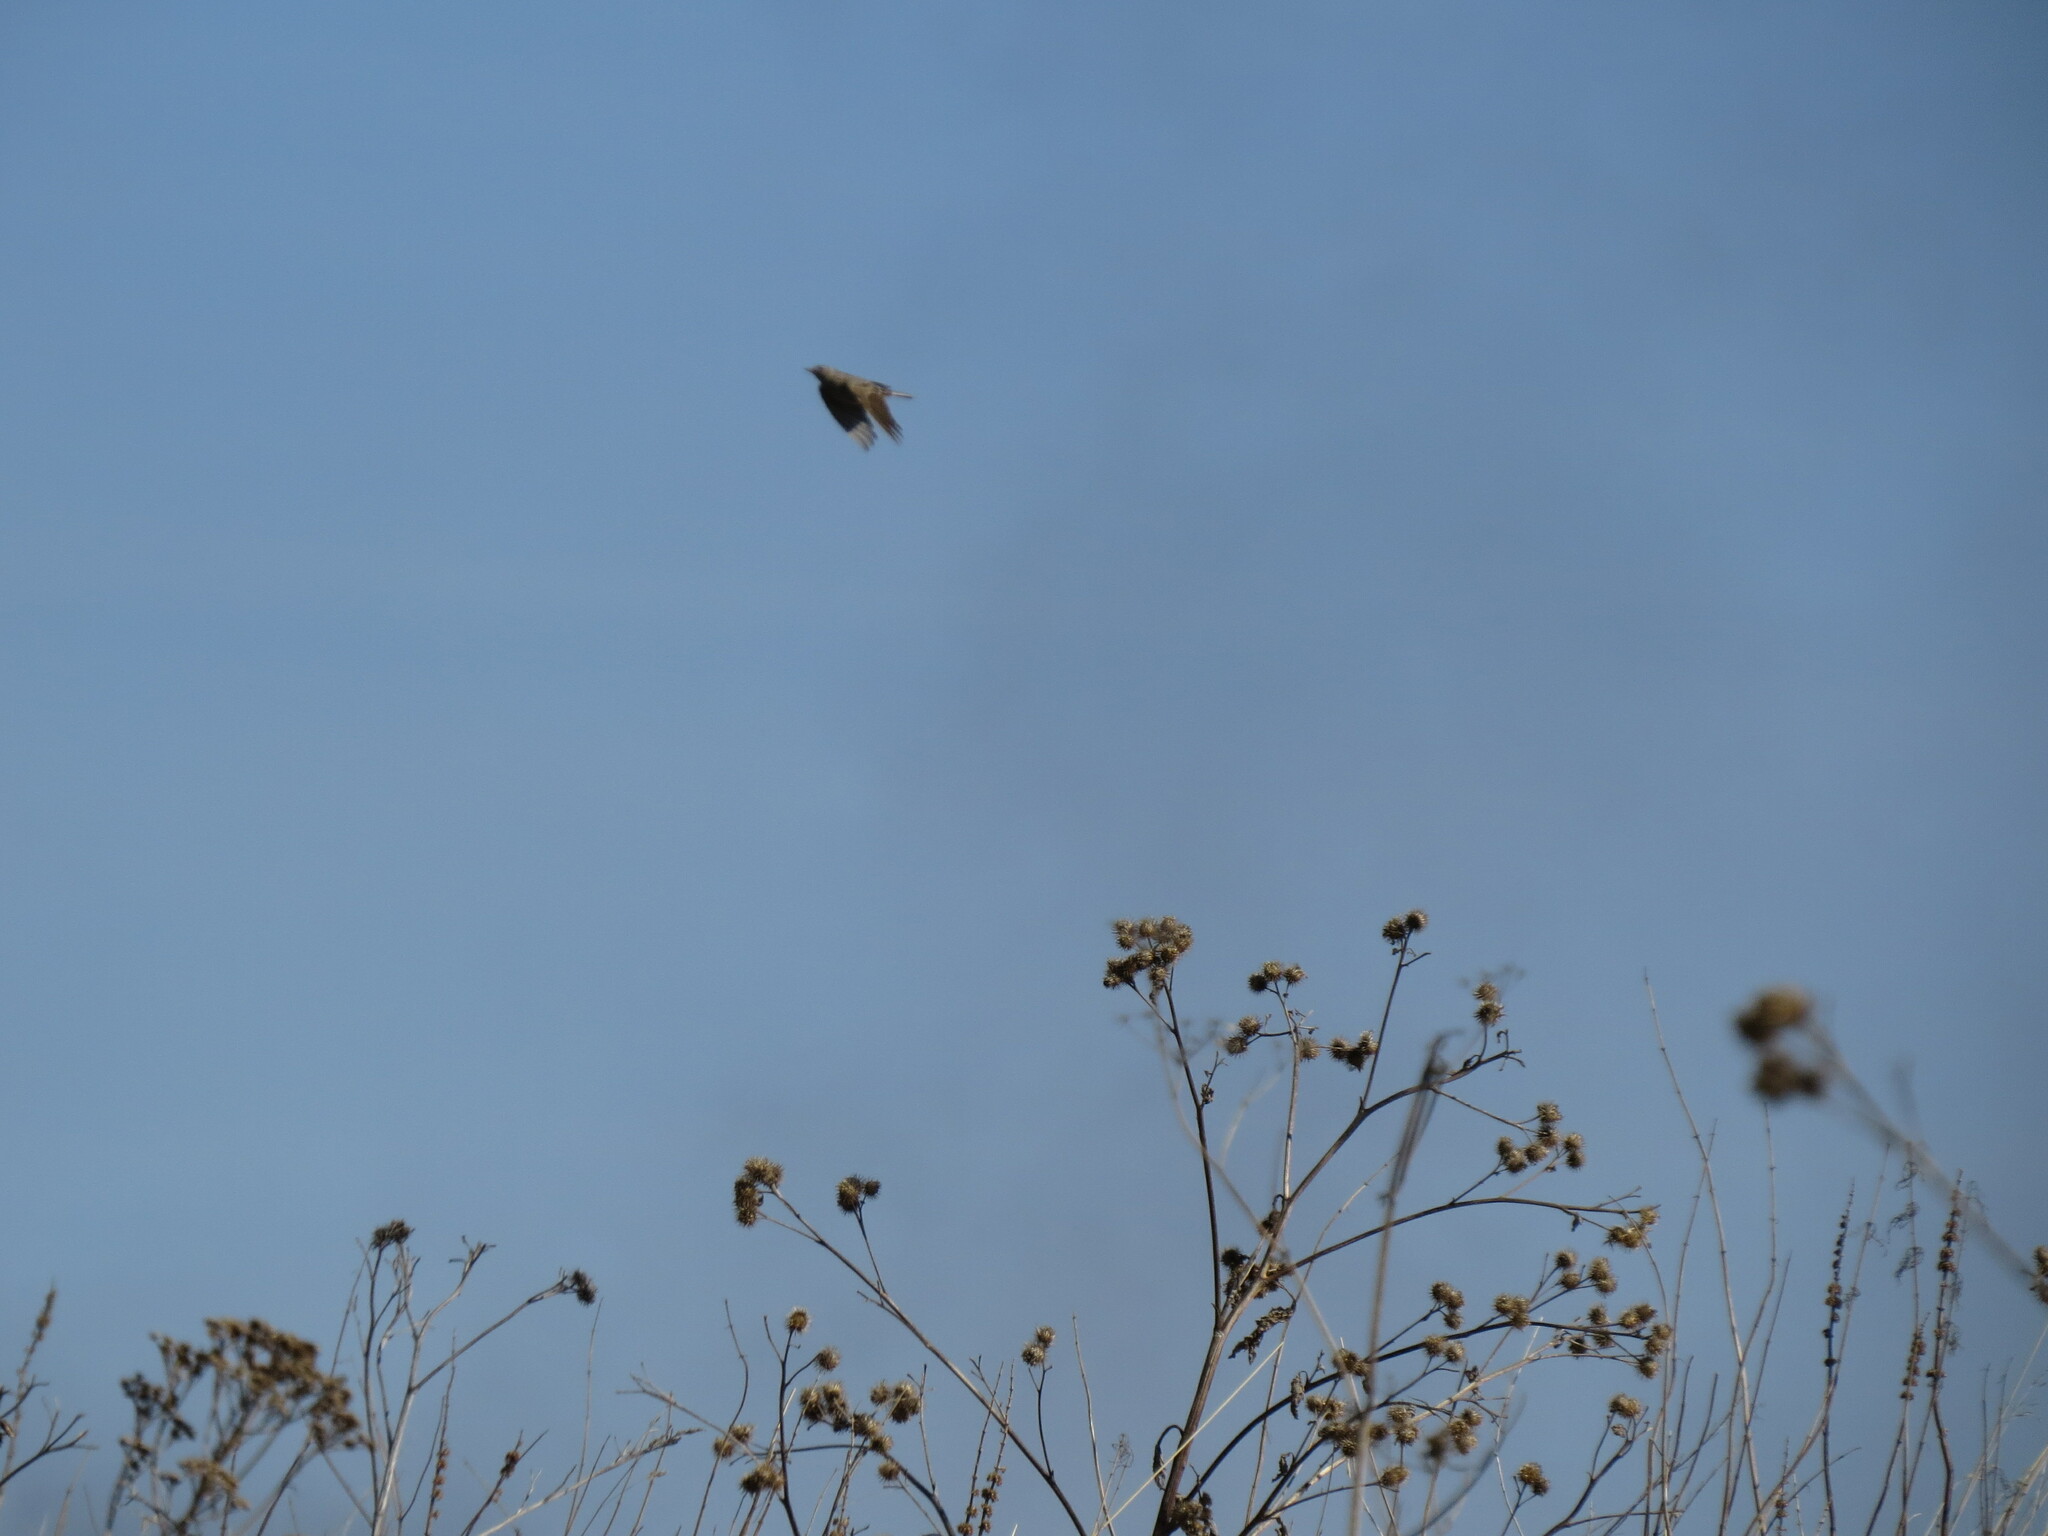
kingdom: Animalia
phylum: Chordata
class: Aves
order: Passeriformes
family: Alaudidae
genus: Alauda
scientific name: Alauda arvensis
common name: Eurasian skylark
